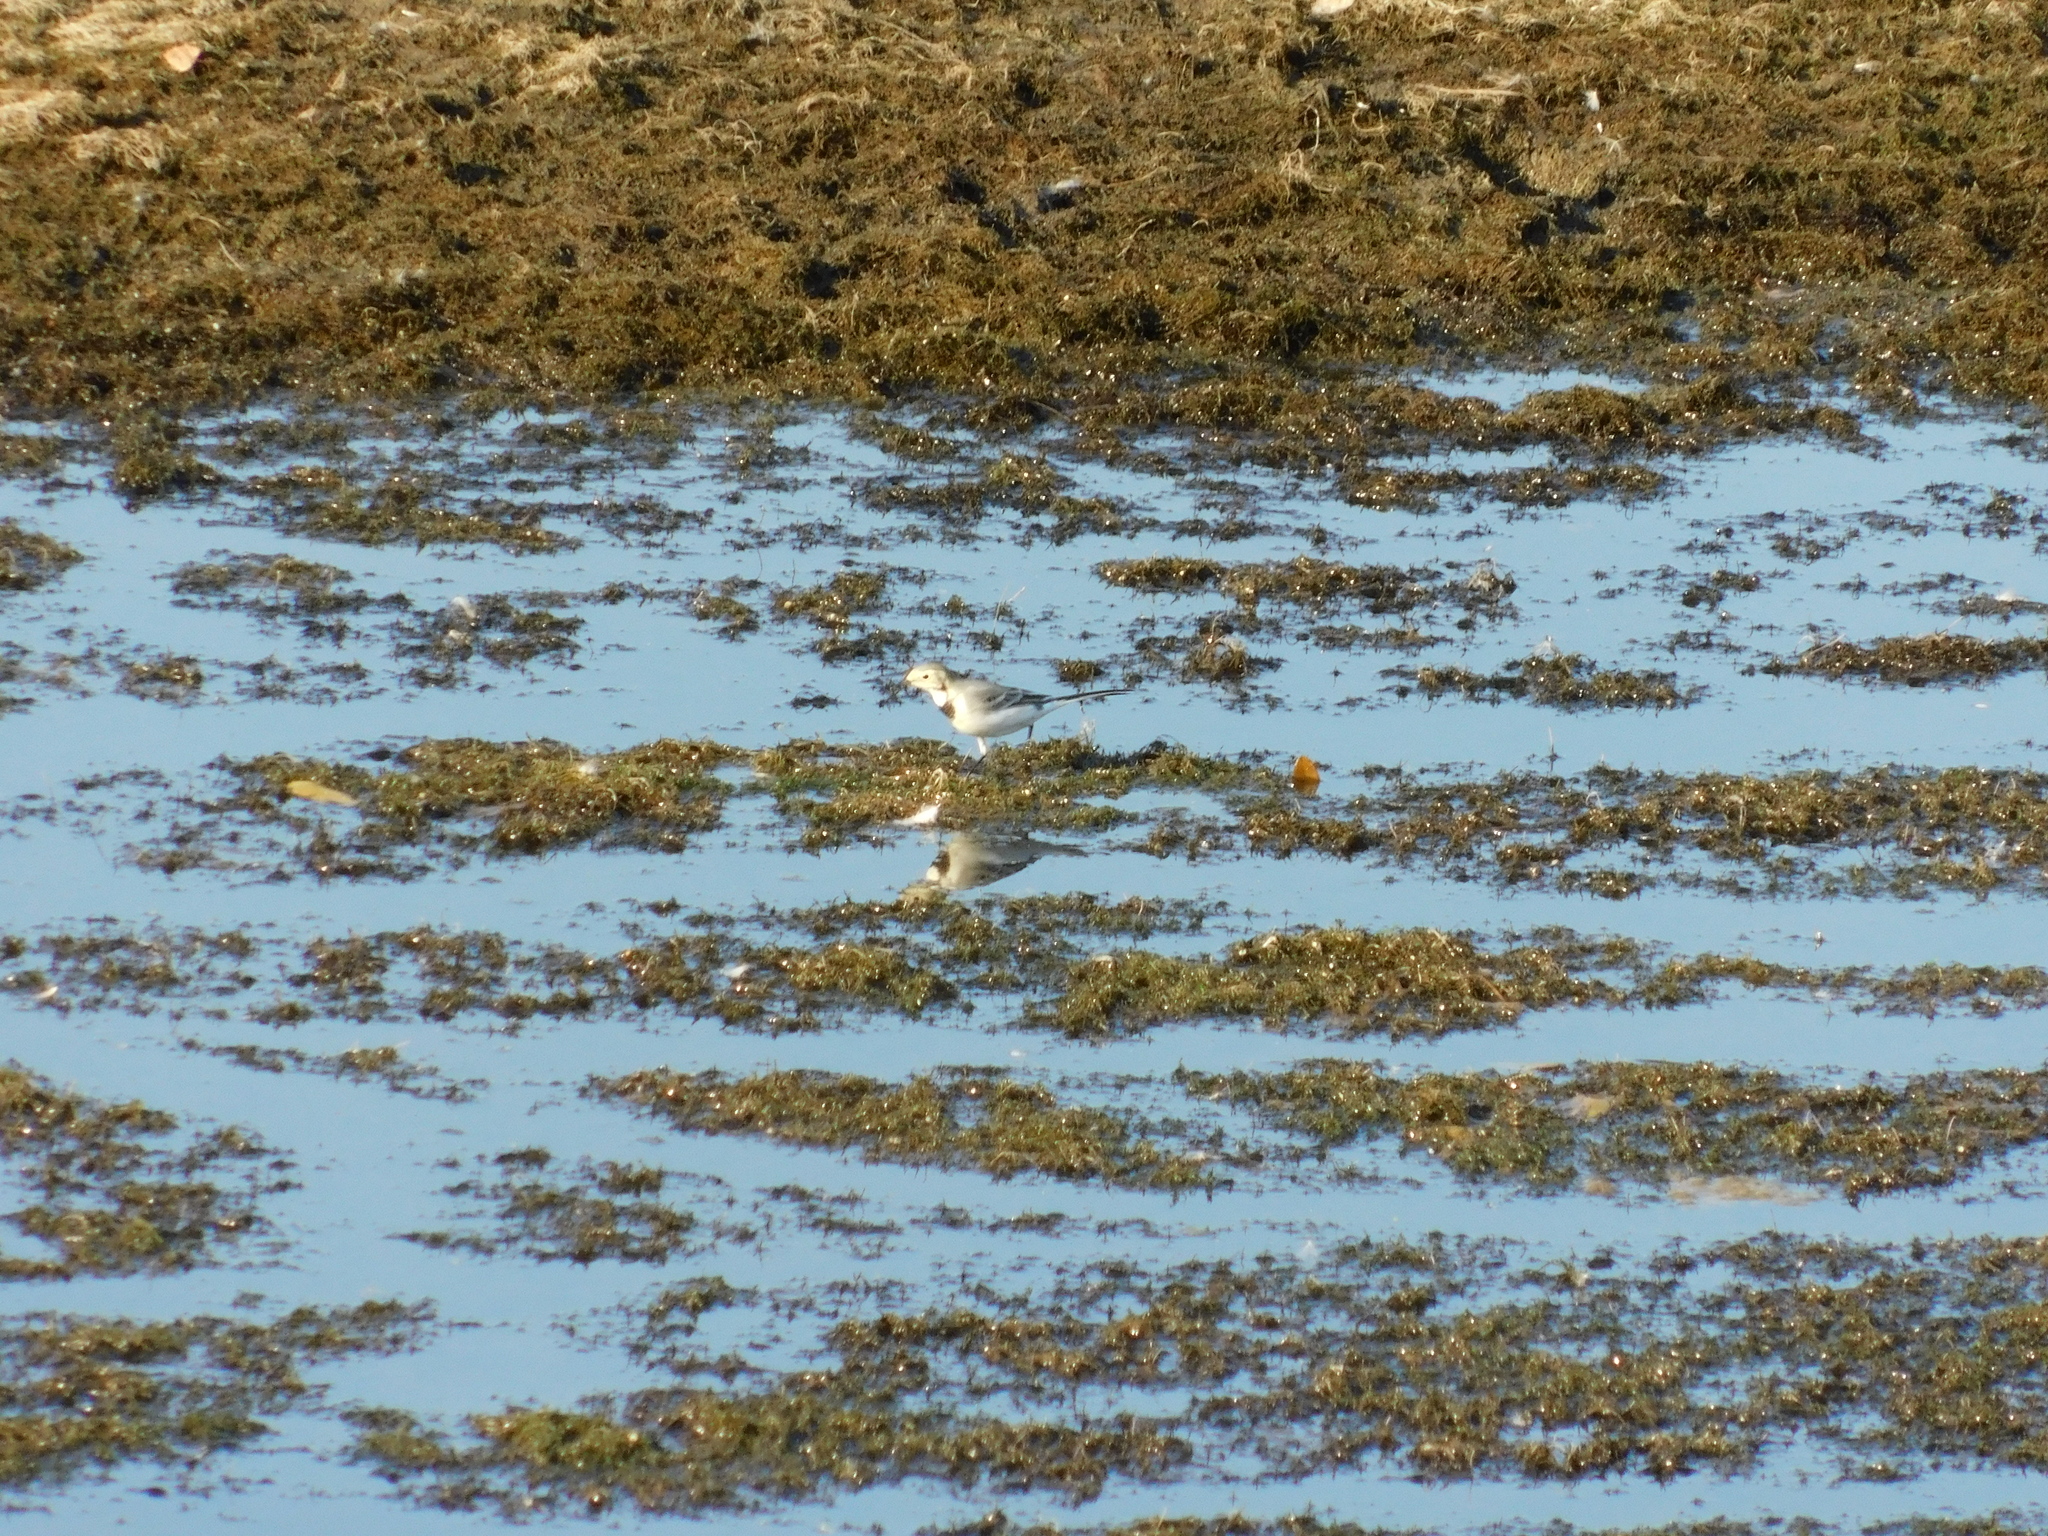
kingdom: Animalia
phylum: Chordata
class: Aves
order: Passeriformes
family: Motacillidae
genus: Motacilla
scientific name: Motacilla alba
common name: White wagtail
